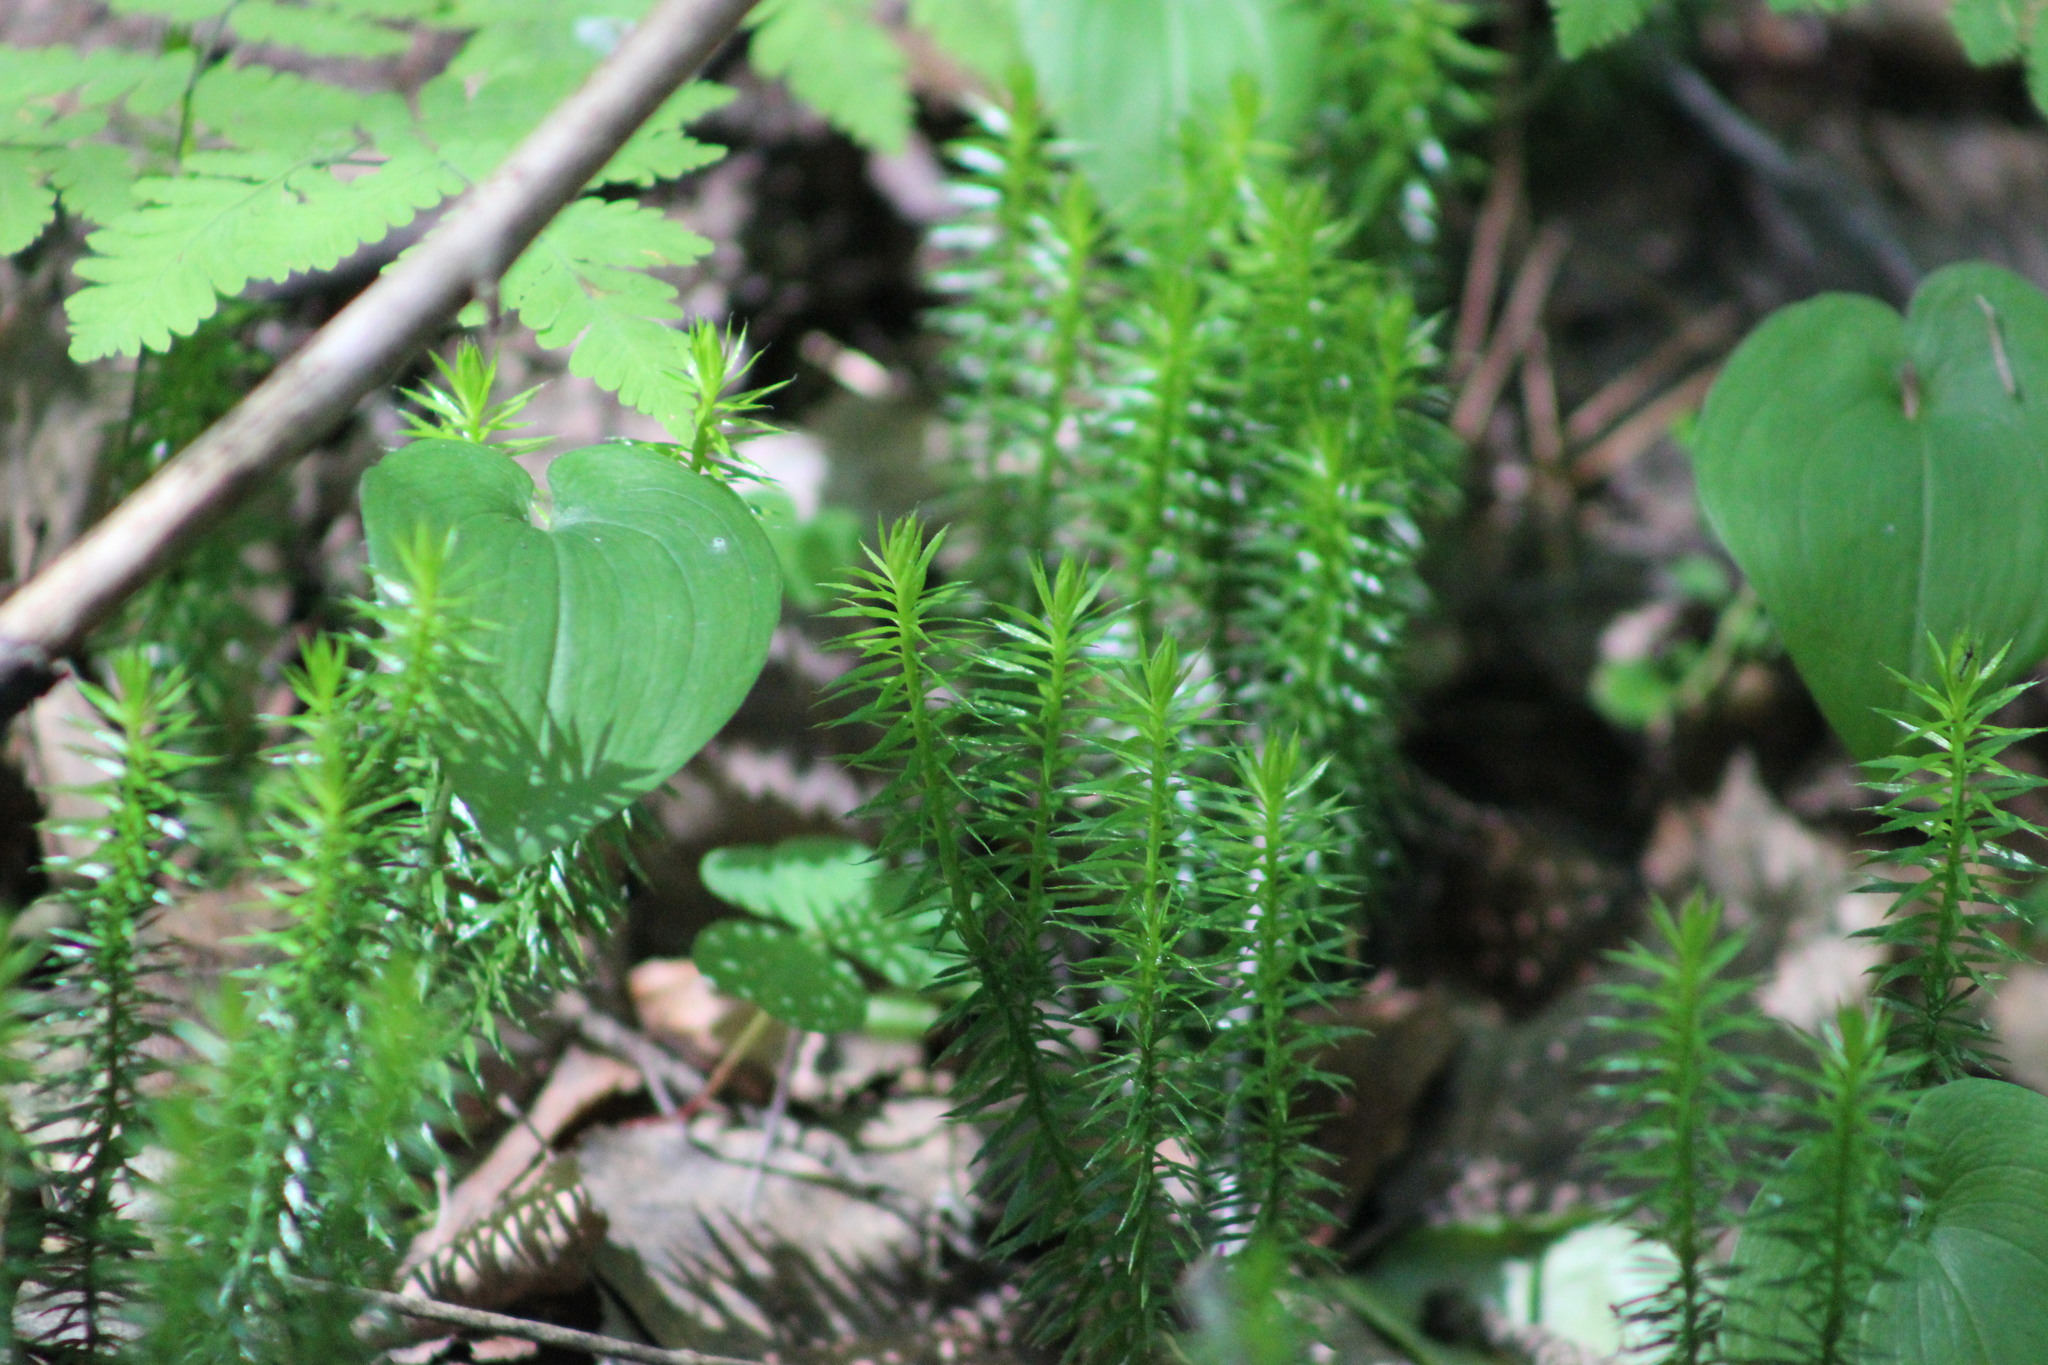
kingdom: Plantae
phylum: Tracheophyta
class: Lycopodiopsida
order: Lycopodiales
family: Lycopodiaceae
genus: Spinulum
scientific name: Spinulum annotinum
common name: Interrupted club-moss
